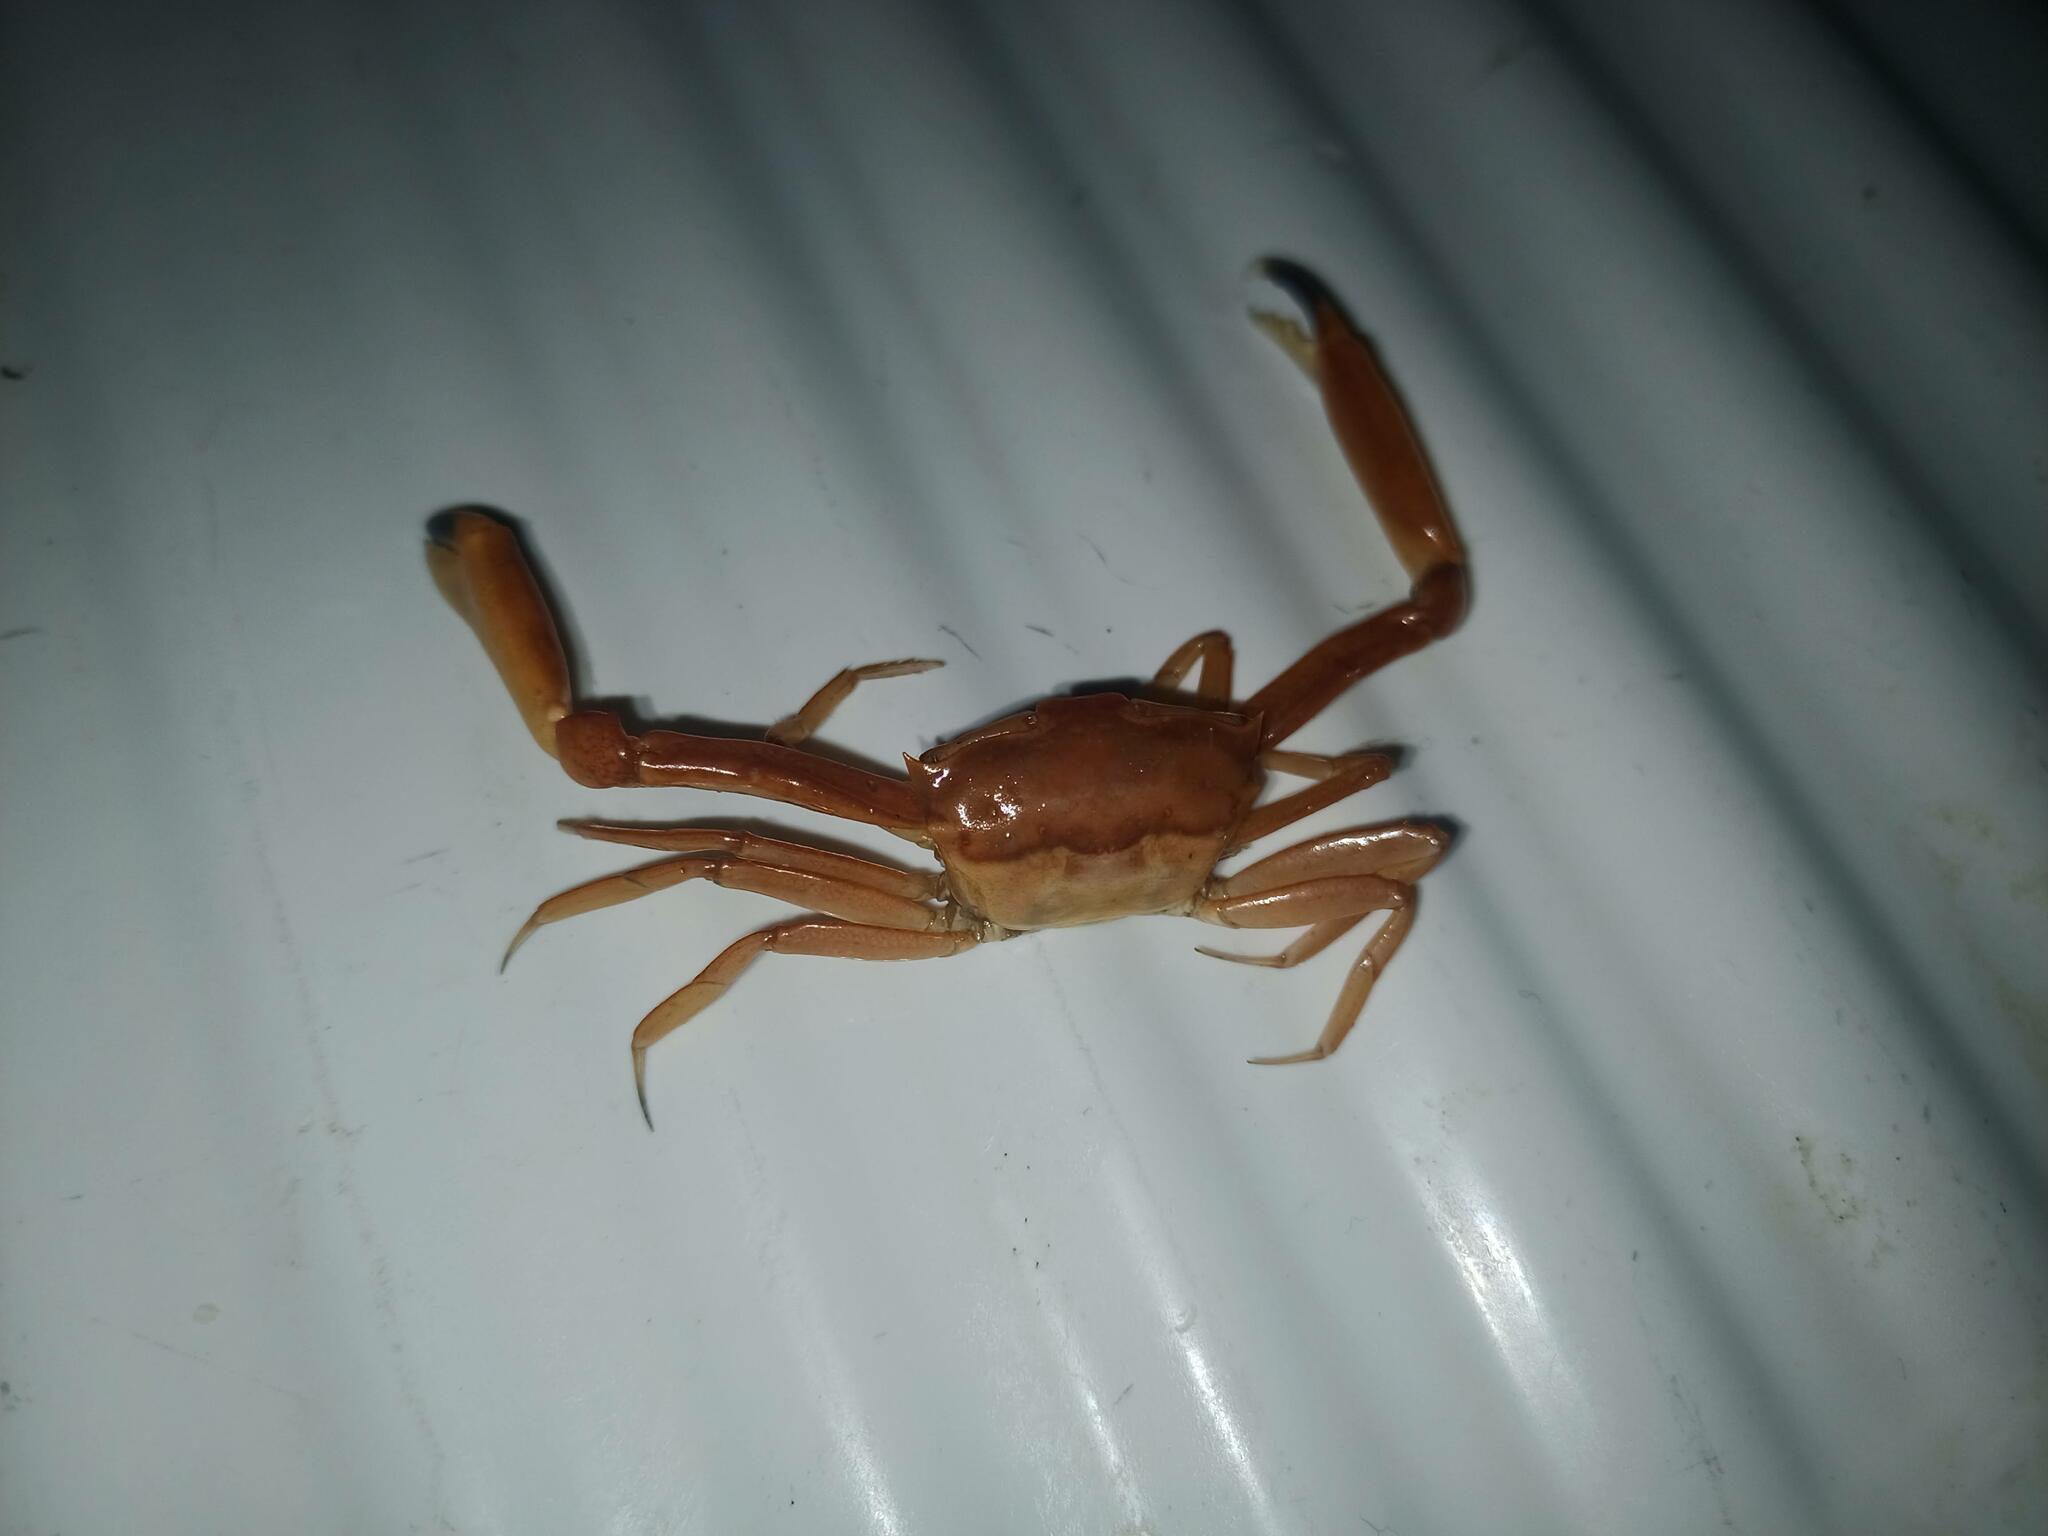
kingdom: Animalia
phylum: Arthropoda
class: Malacostraca
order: Decapoda
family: Goneplacidae
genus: Goneplax
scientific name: Goneplax rhomboides
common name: Angular crab
